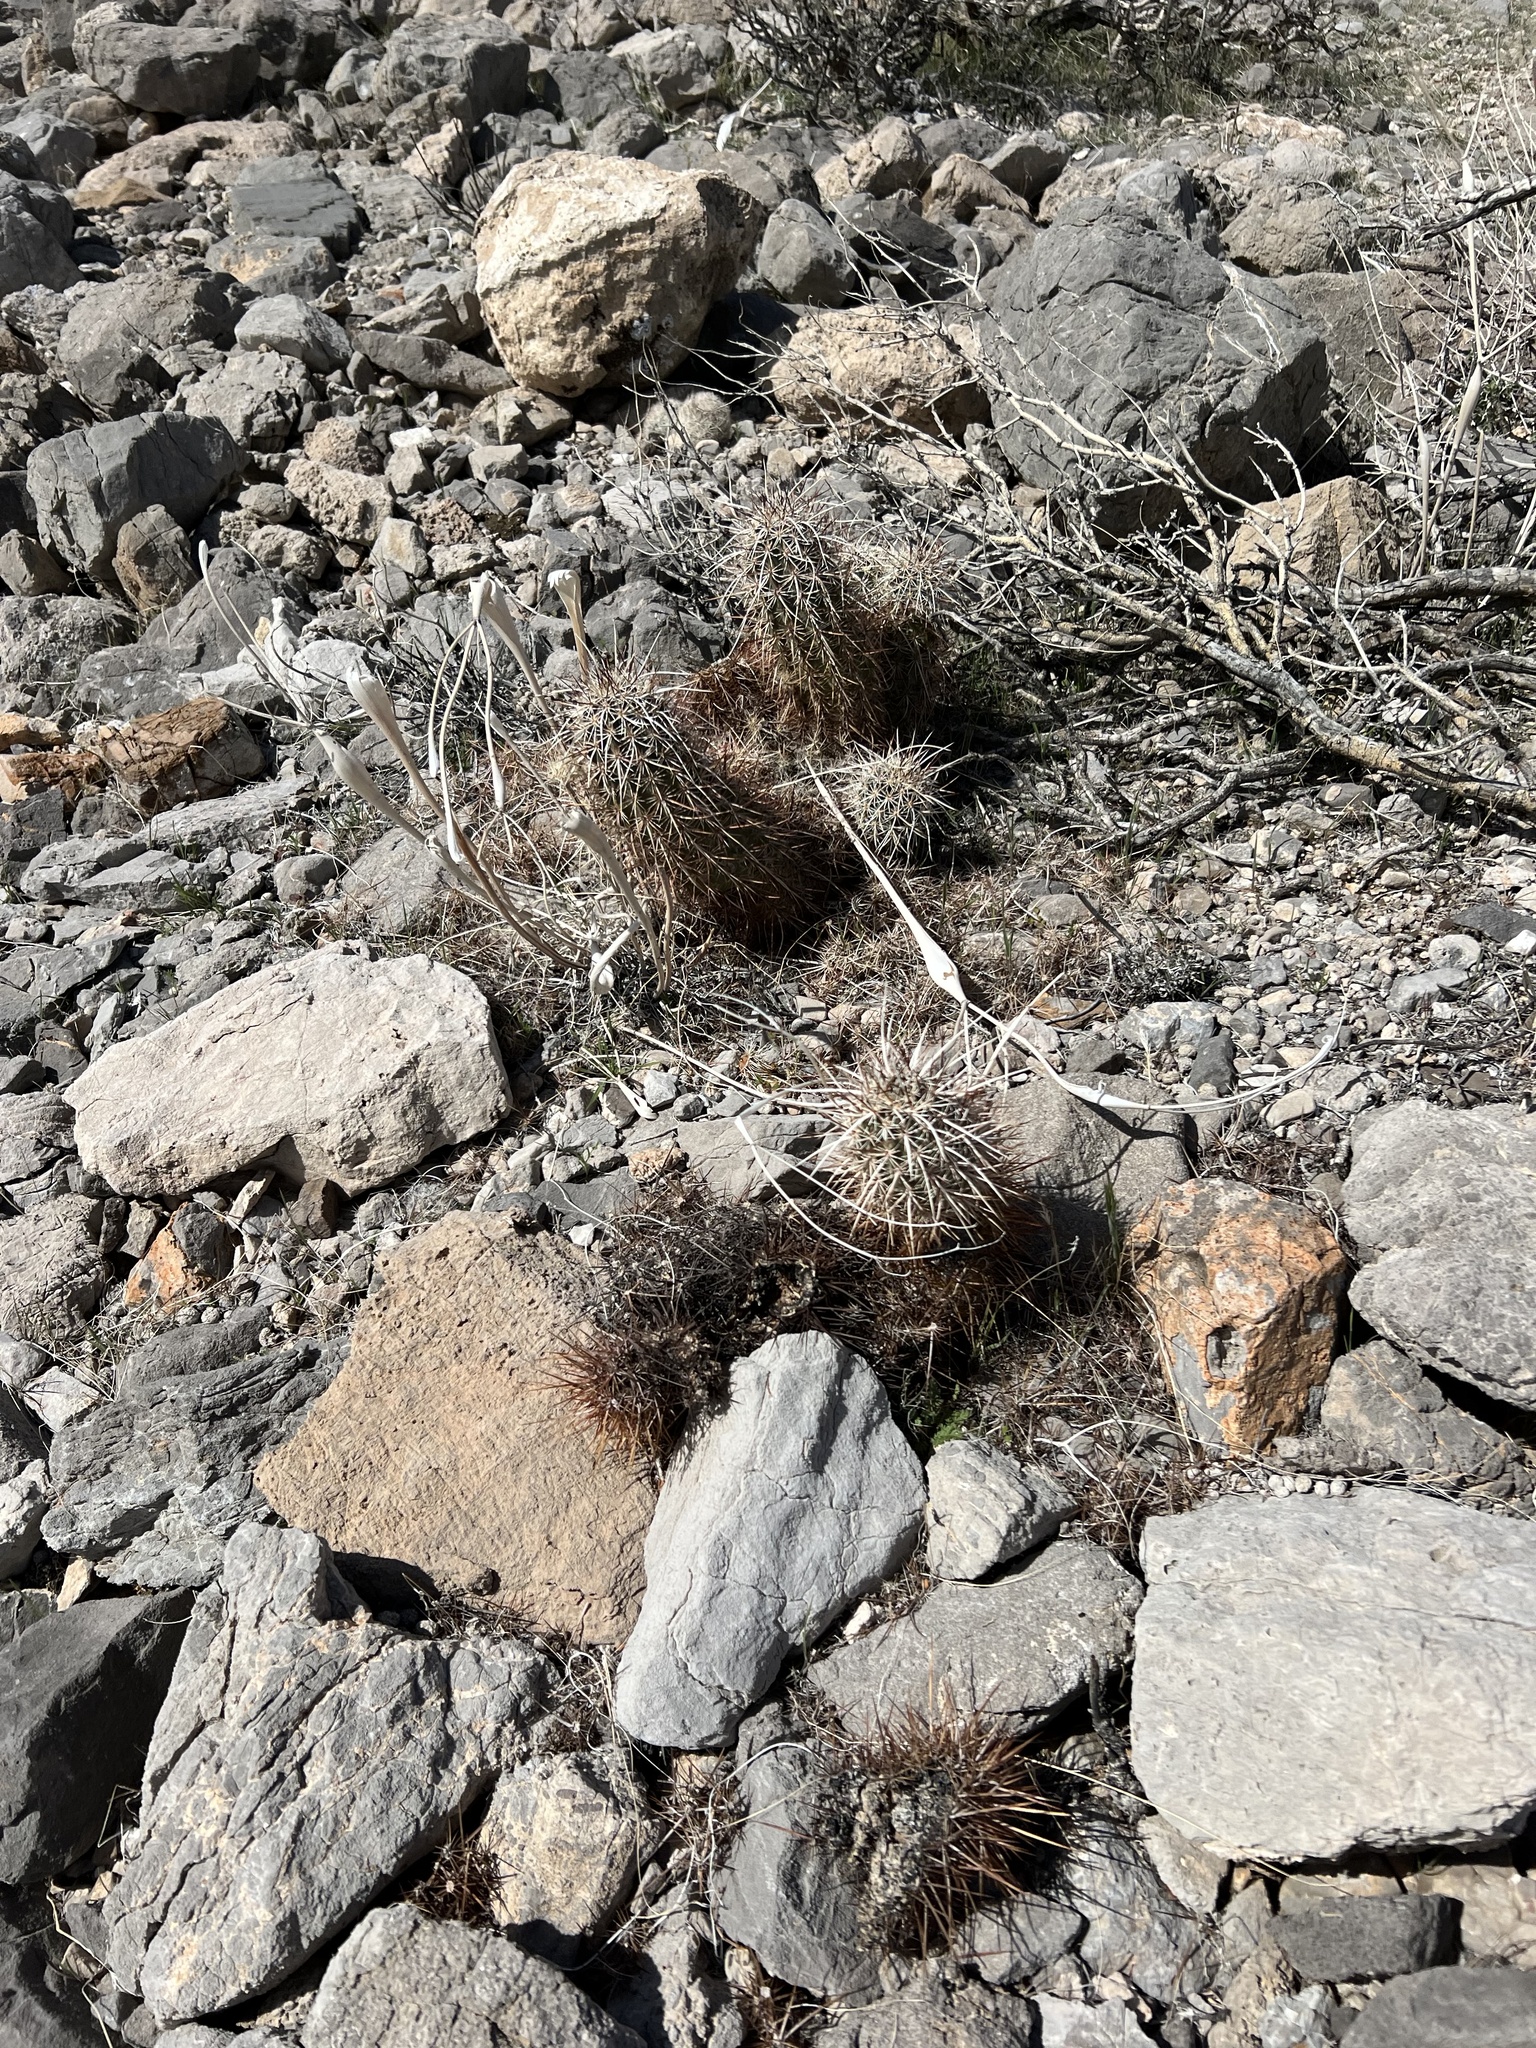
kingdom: Plantae
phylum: Tracheophyta
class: Magnoliopsida
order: Caryophyllales
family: Cactaceae
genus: Echinocereus
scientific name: Echinocereus engelmannii
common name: Engelmann's hedgehog cactus
